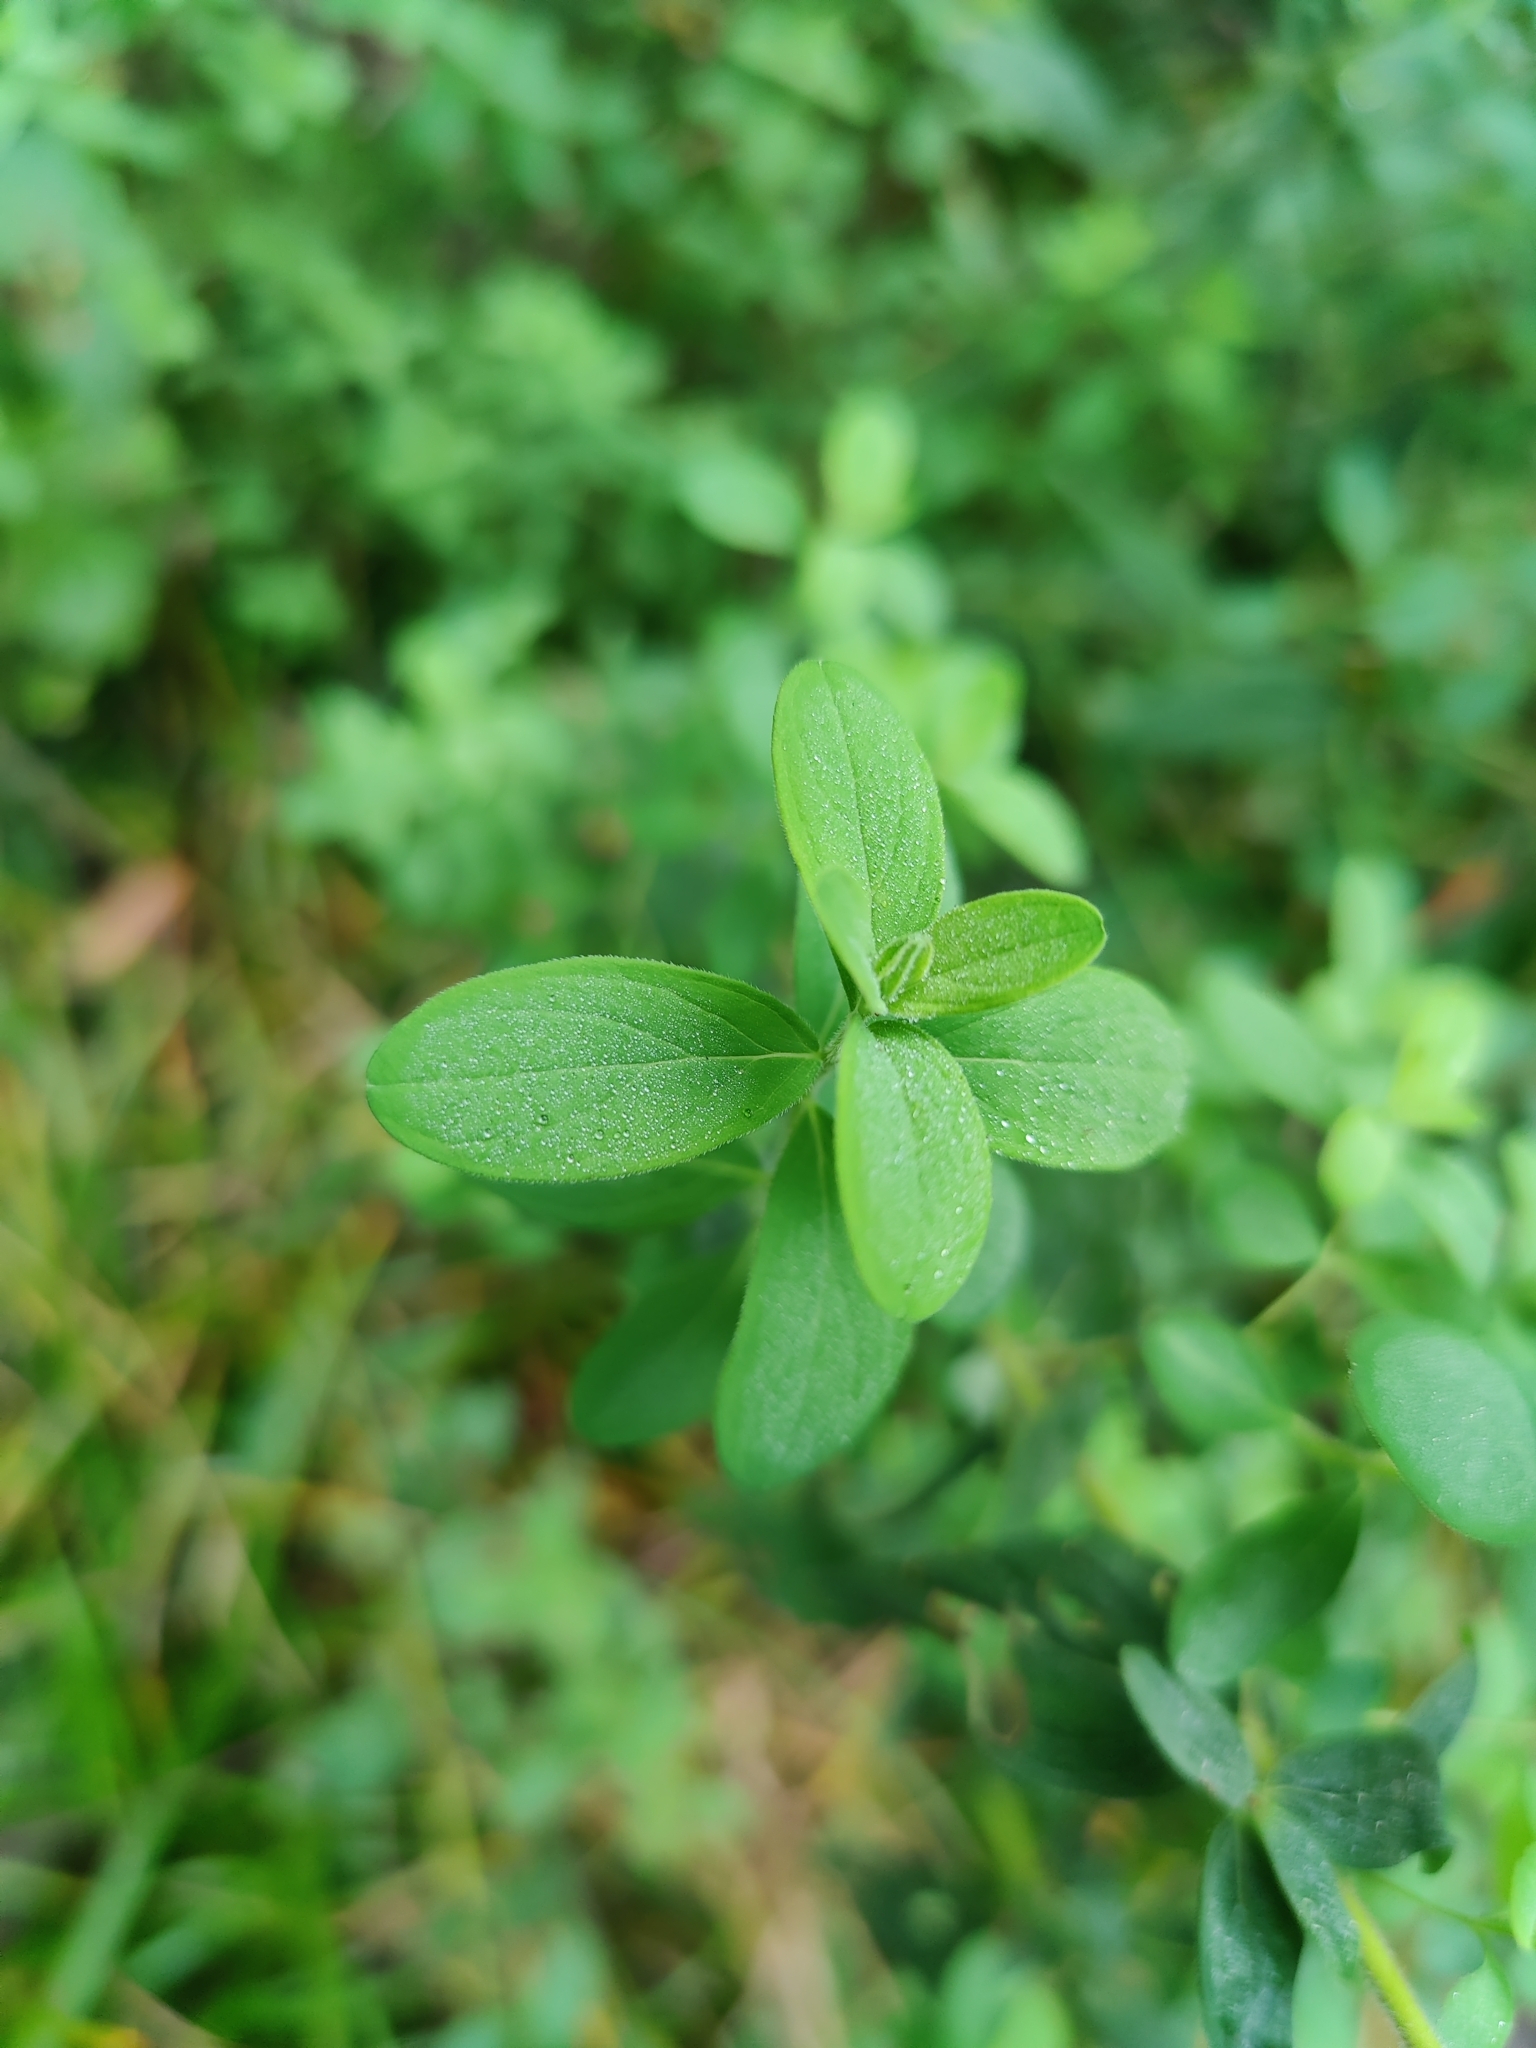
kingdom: Plantae
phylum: Tracheophyta
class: Magnoliopsida
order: Malpighiales
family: Hypericaceae
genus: Hypericum
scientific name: Hypericum hirsutum
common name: Hairy st. john's-wort
